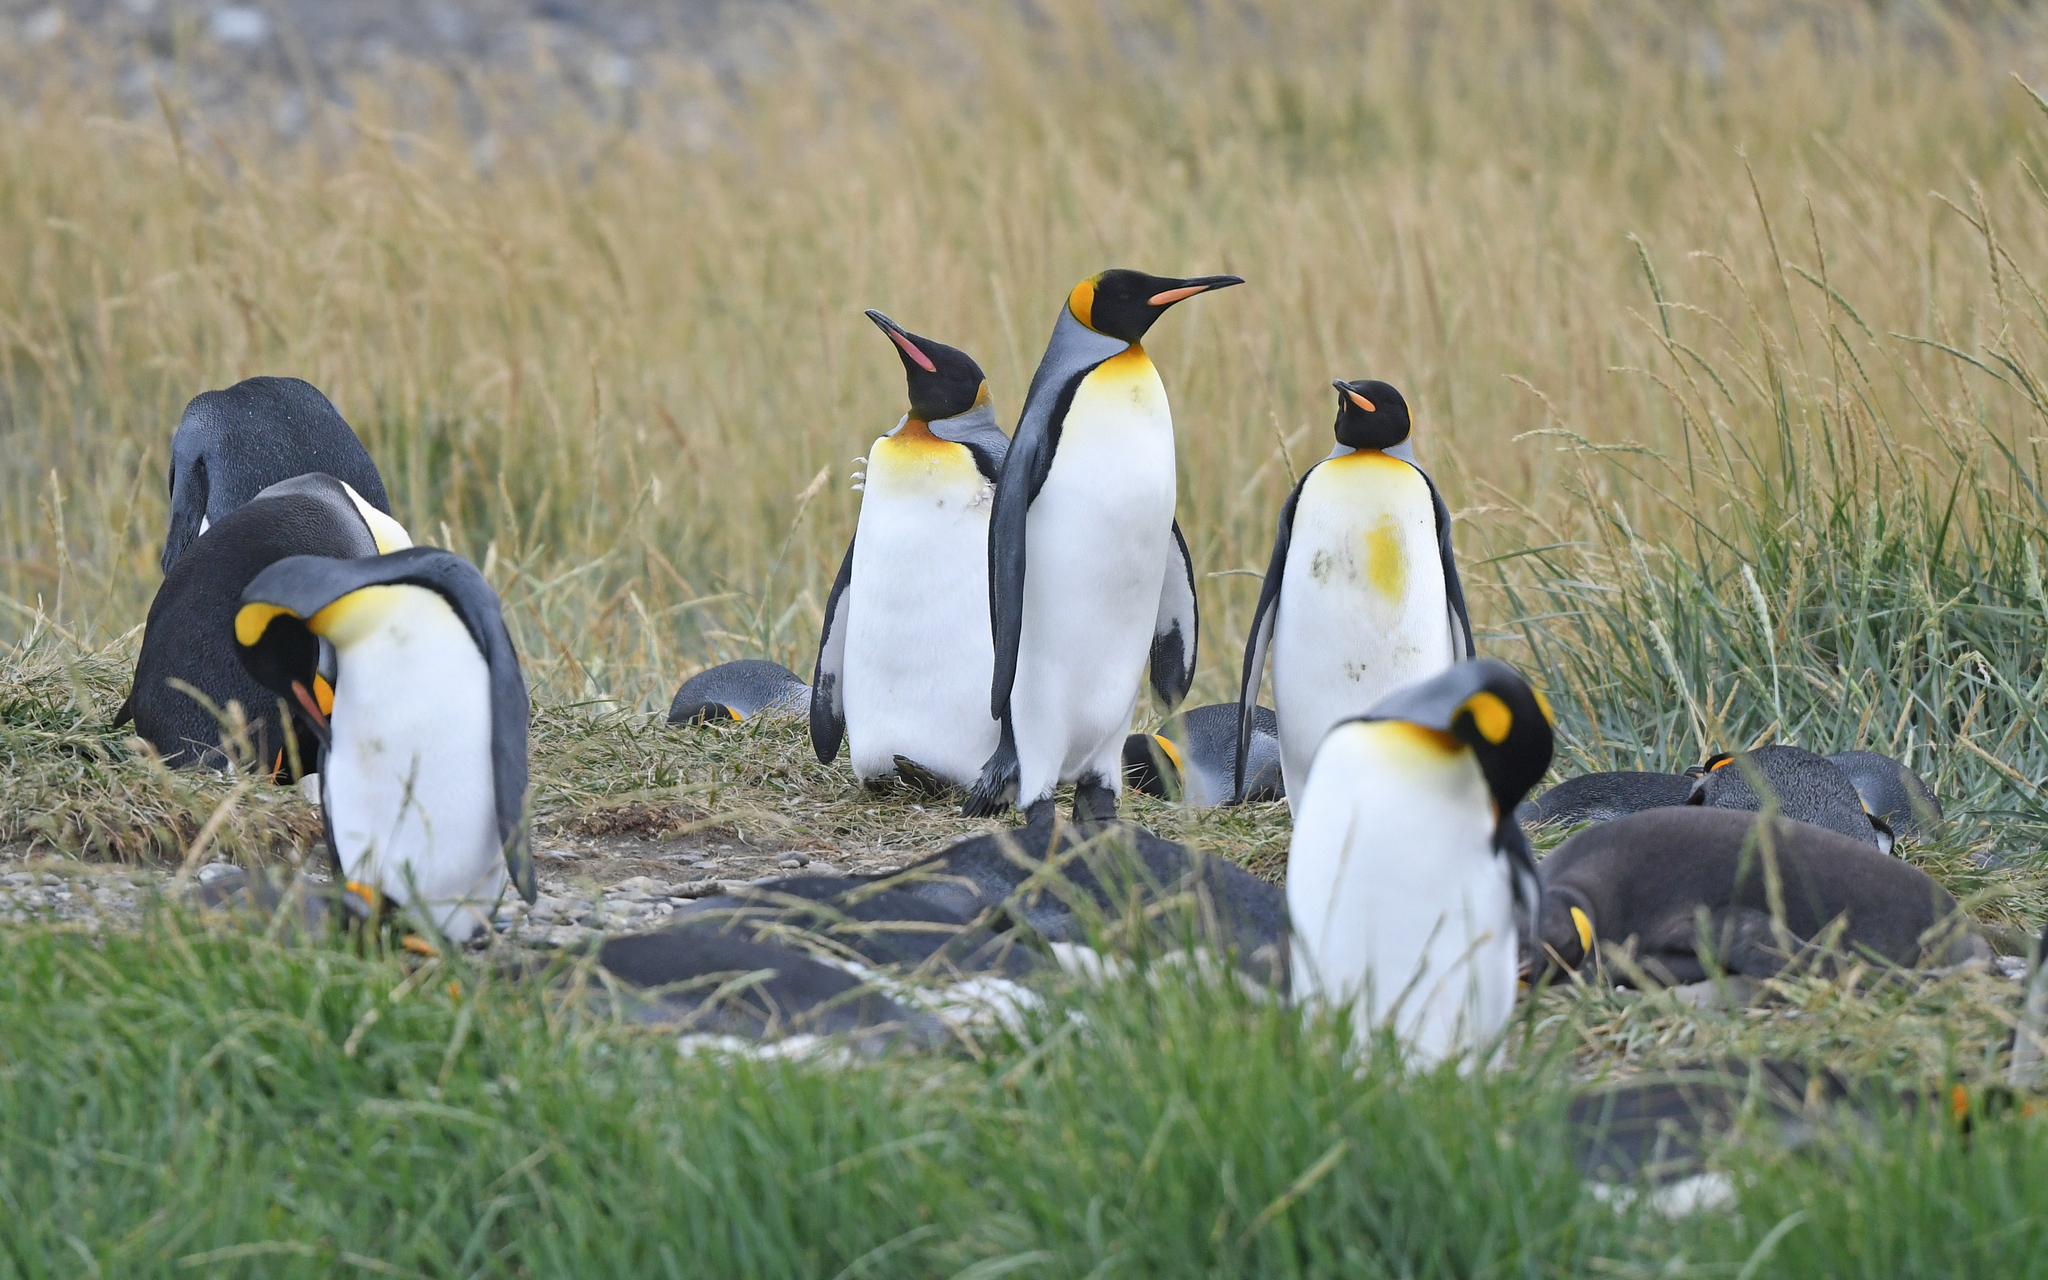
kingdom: Animalia
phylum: Chordata
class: Aves
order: Sphenisciformes
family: Spheniscidae
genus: Aptenodytes
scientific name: Aptenodytes patagonicus
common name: King penguin
